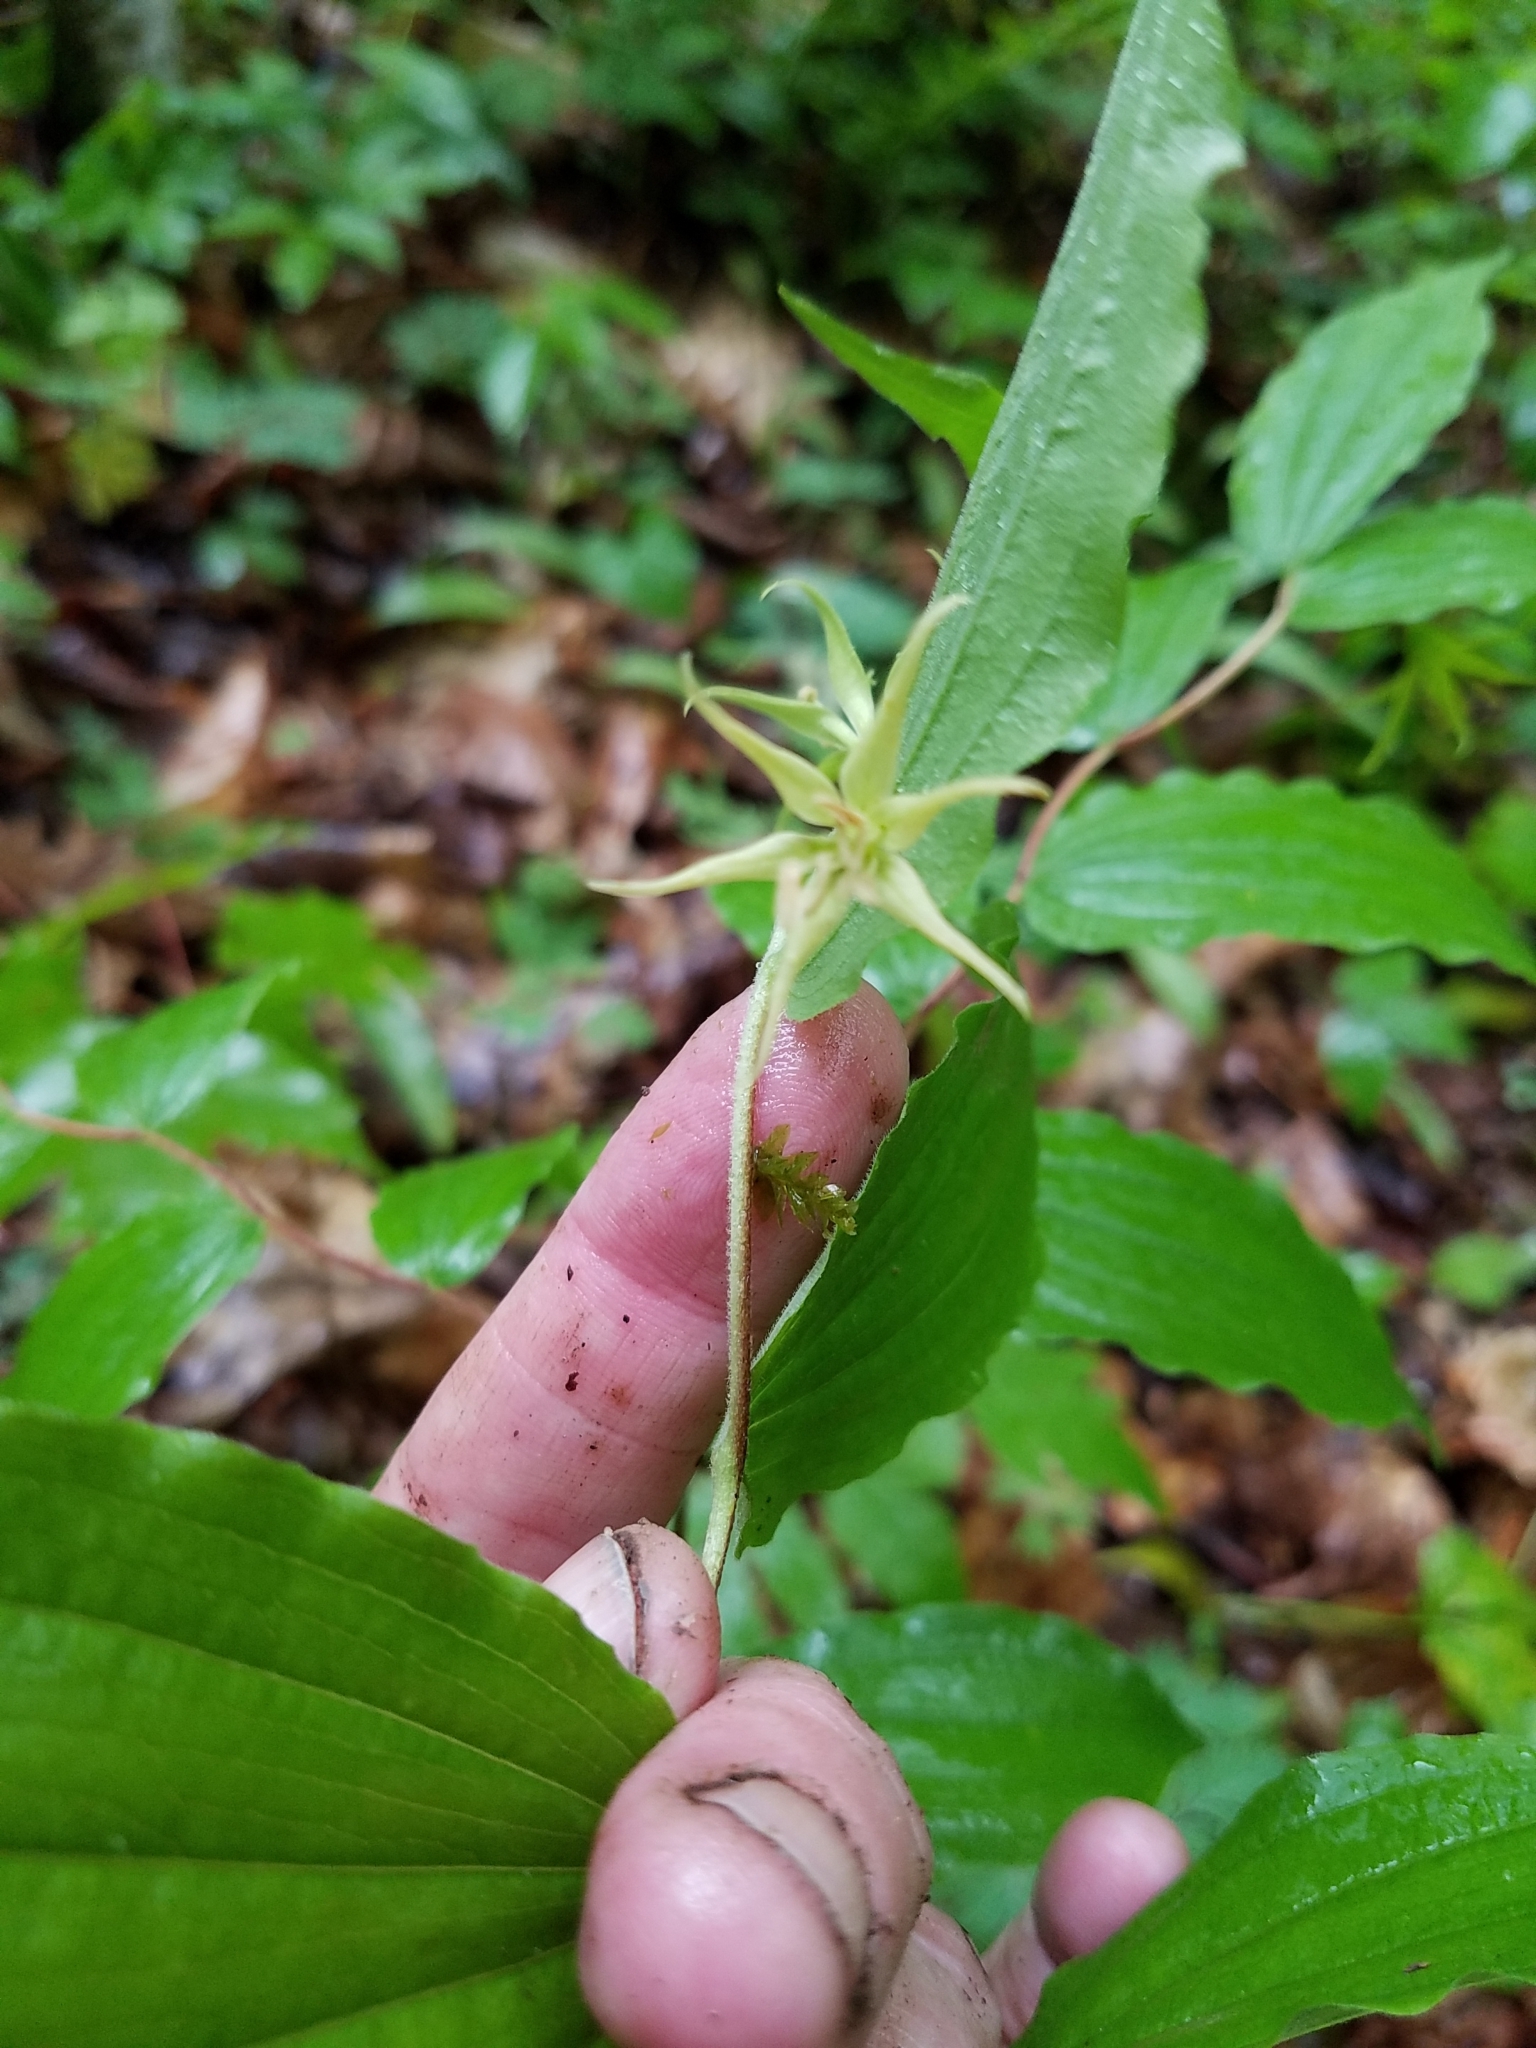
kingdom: Plantae
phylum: Tracheophyta
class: Liliopsida
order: Liliales
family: Liliaceae
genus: Prosartes
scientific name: Prosartes lanuginosa
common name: Hairy mandarin
